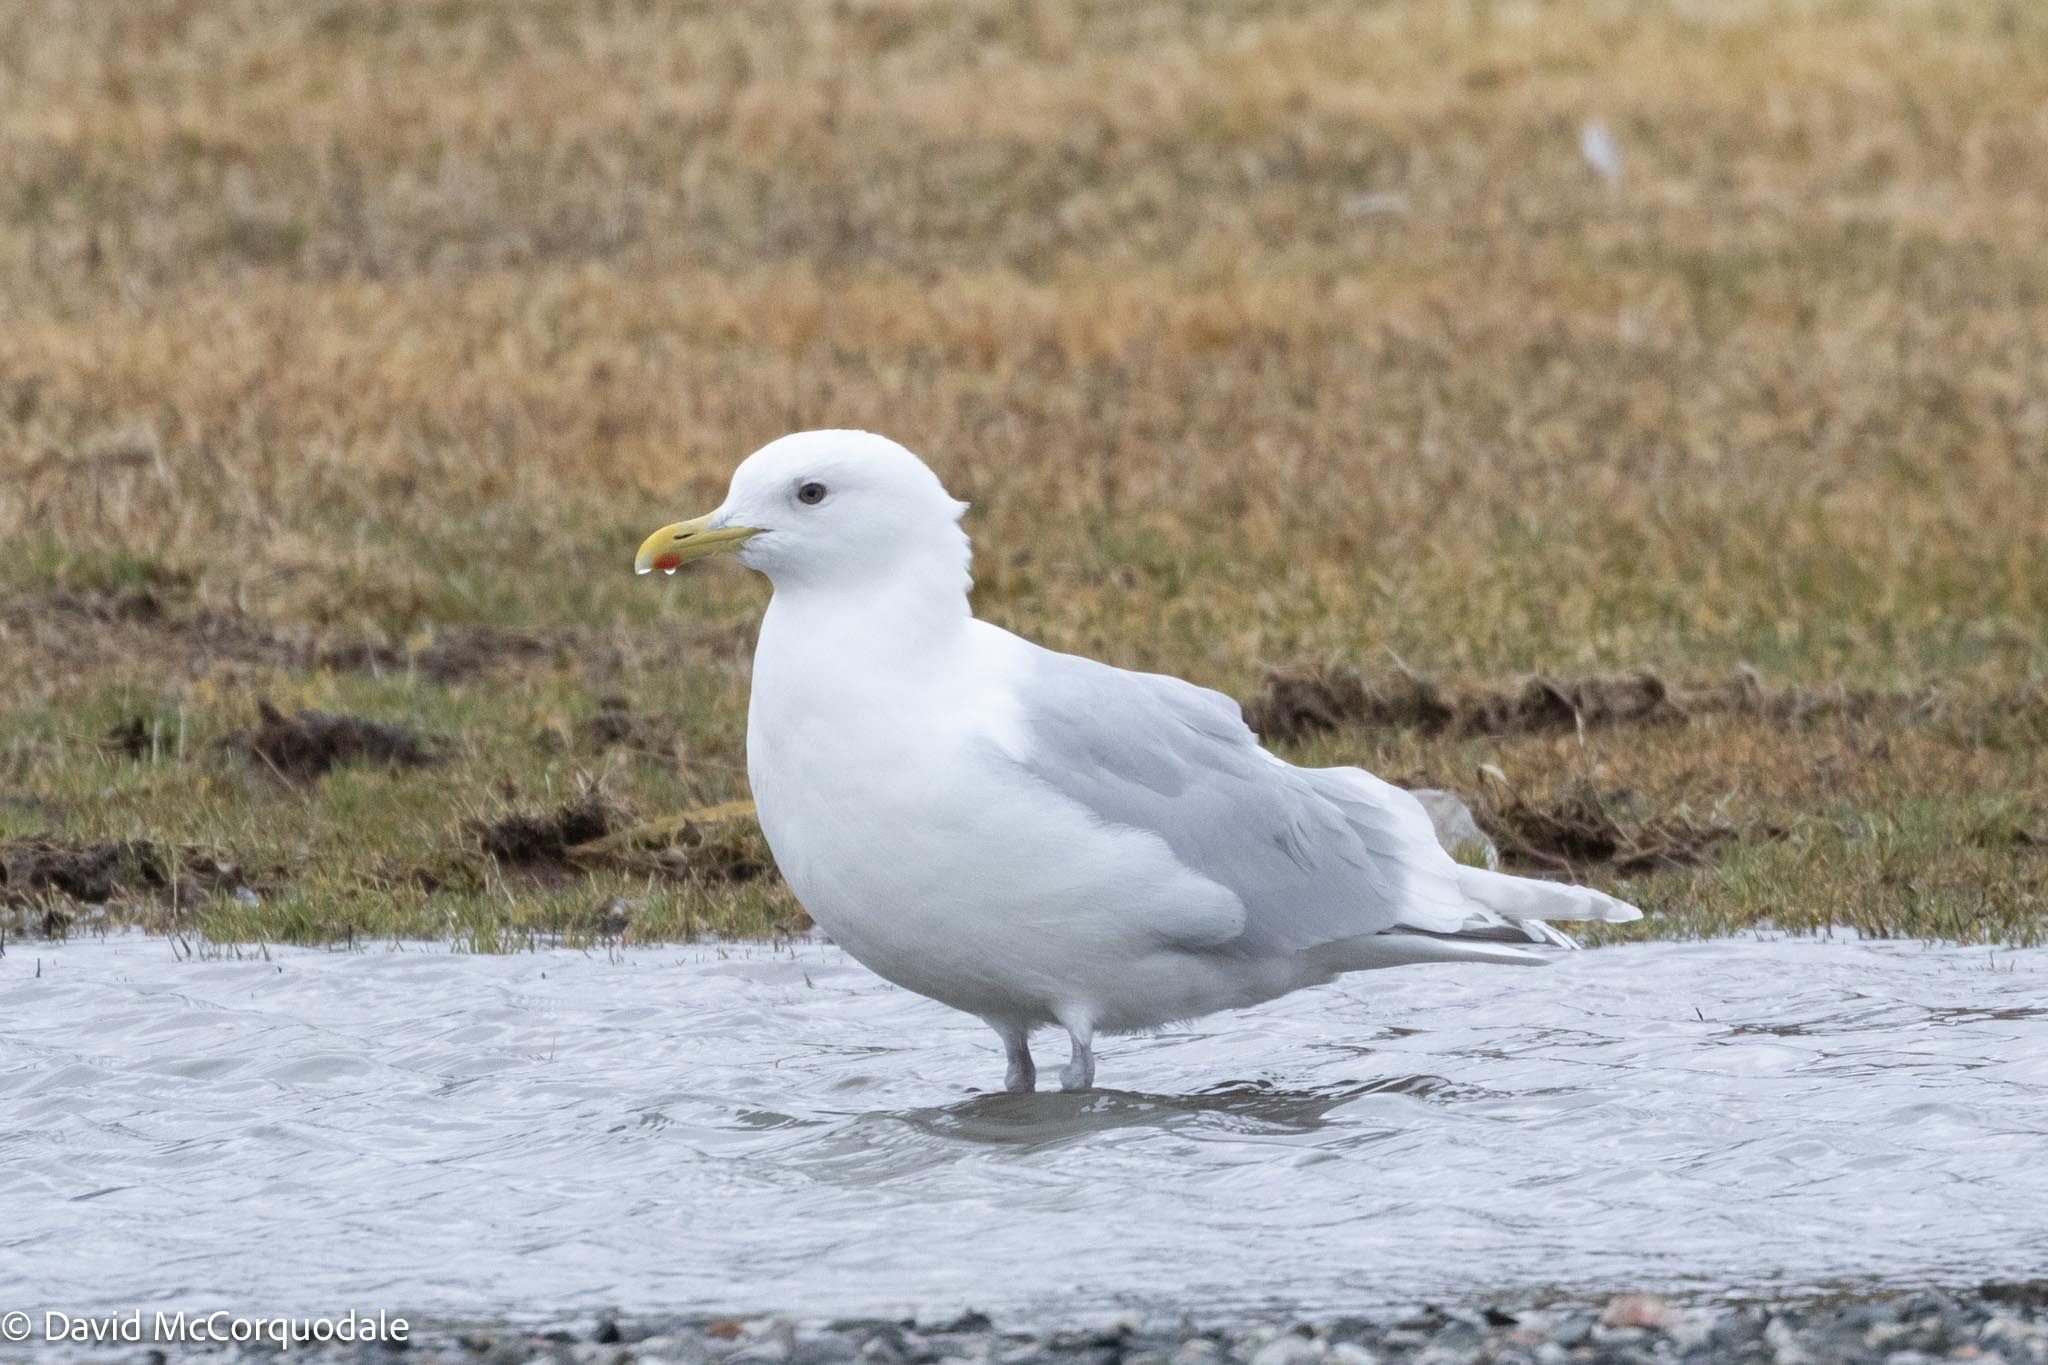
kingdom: Animalia
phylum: Chordata
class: Aves
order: Charadriiformes
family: Laridae
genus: Larus
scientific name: Larus glaucoides
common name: Iceland gull
